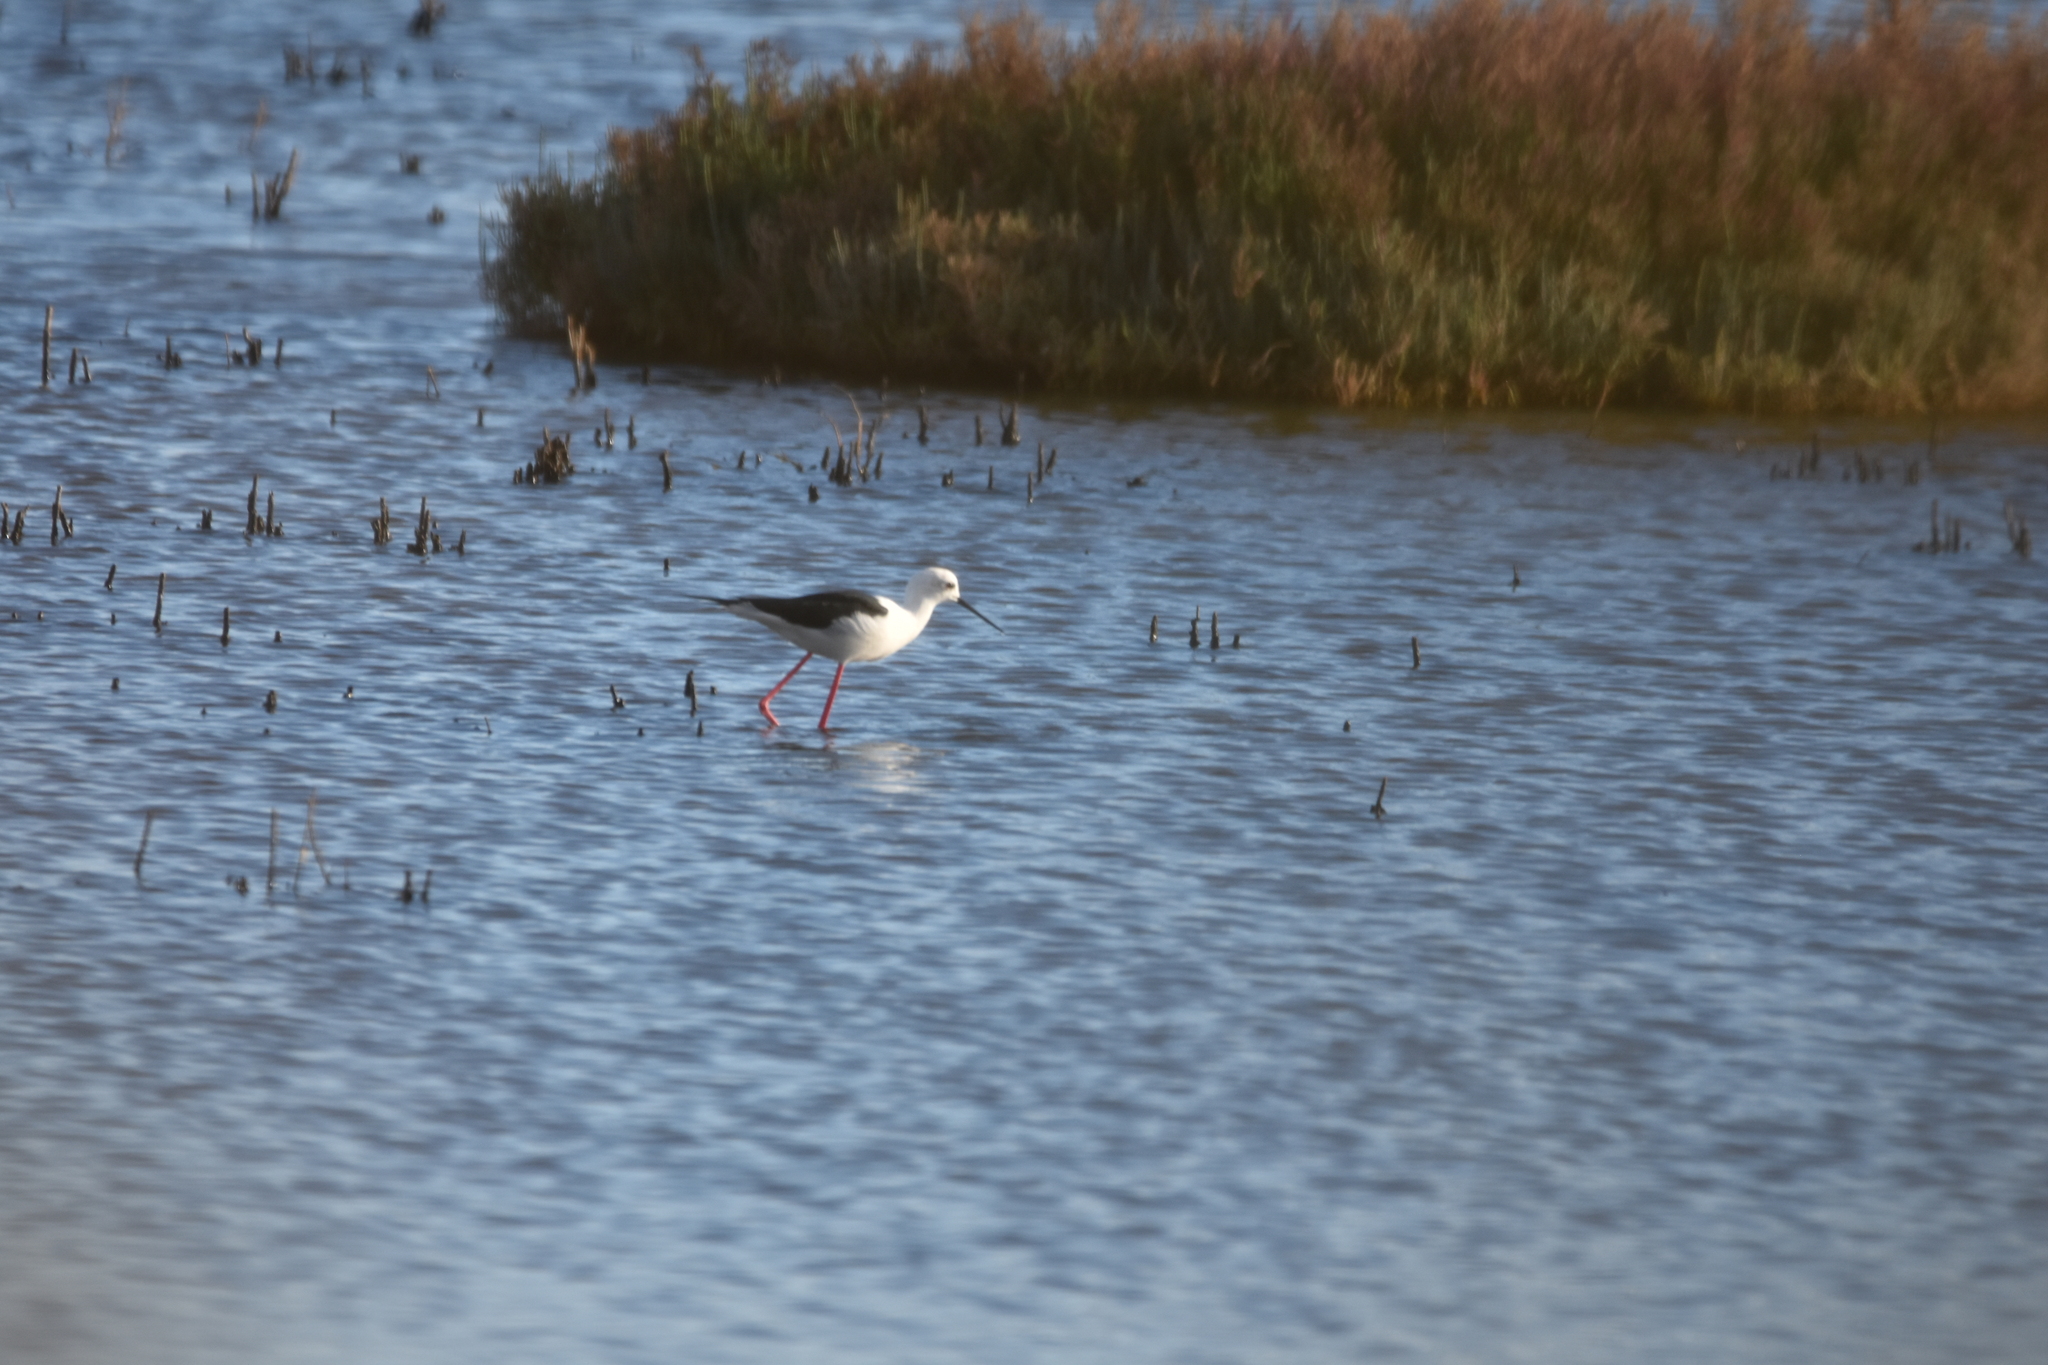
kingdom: Animalia
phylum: Chordata
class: Aves
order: Charadriiformes
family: Recurvirostridae
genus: Himantopus
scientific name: Himantopus himantopus
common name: Black-winged stilt
